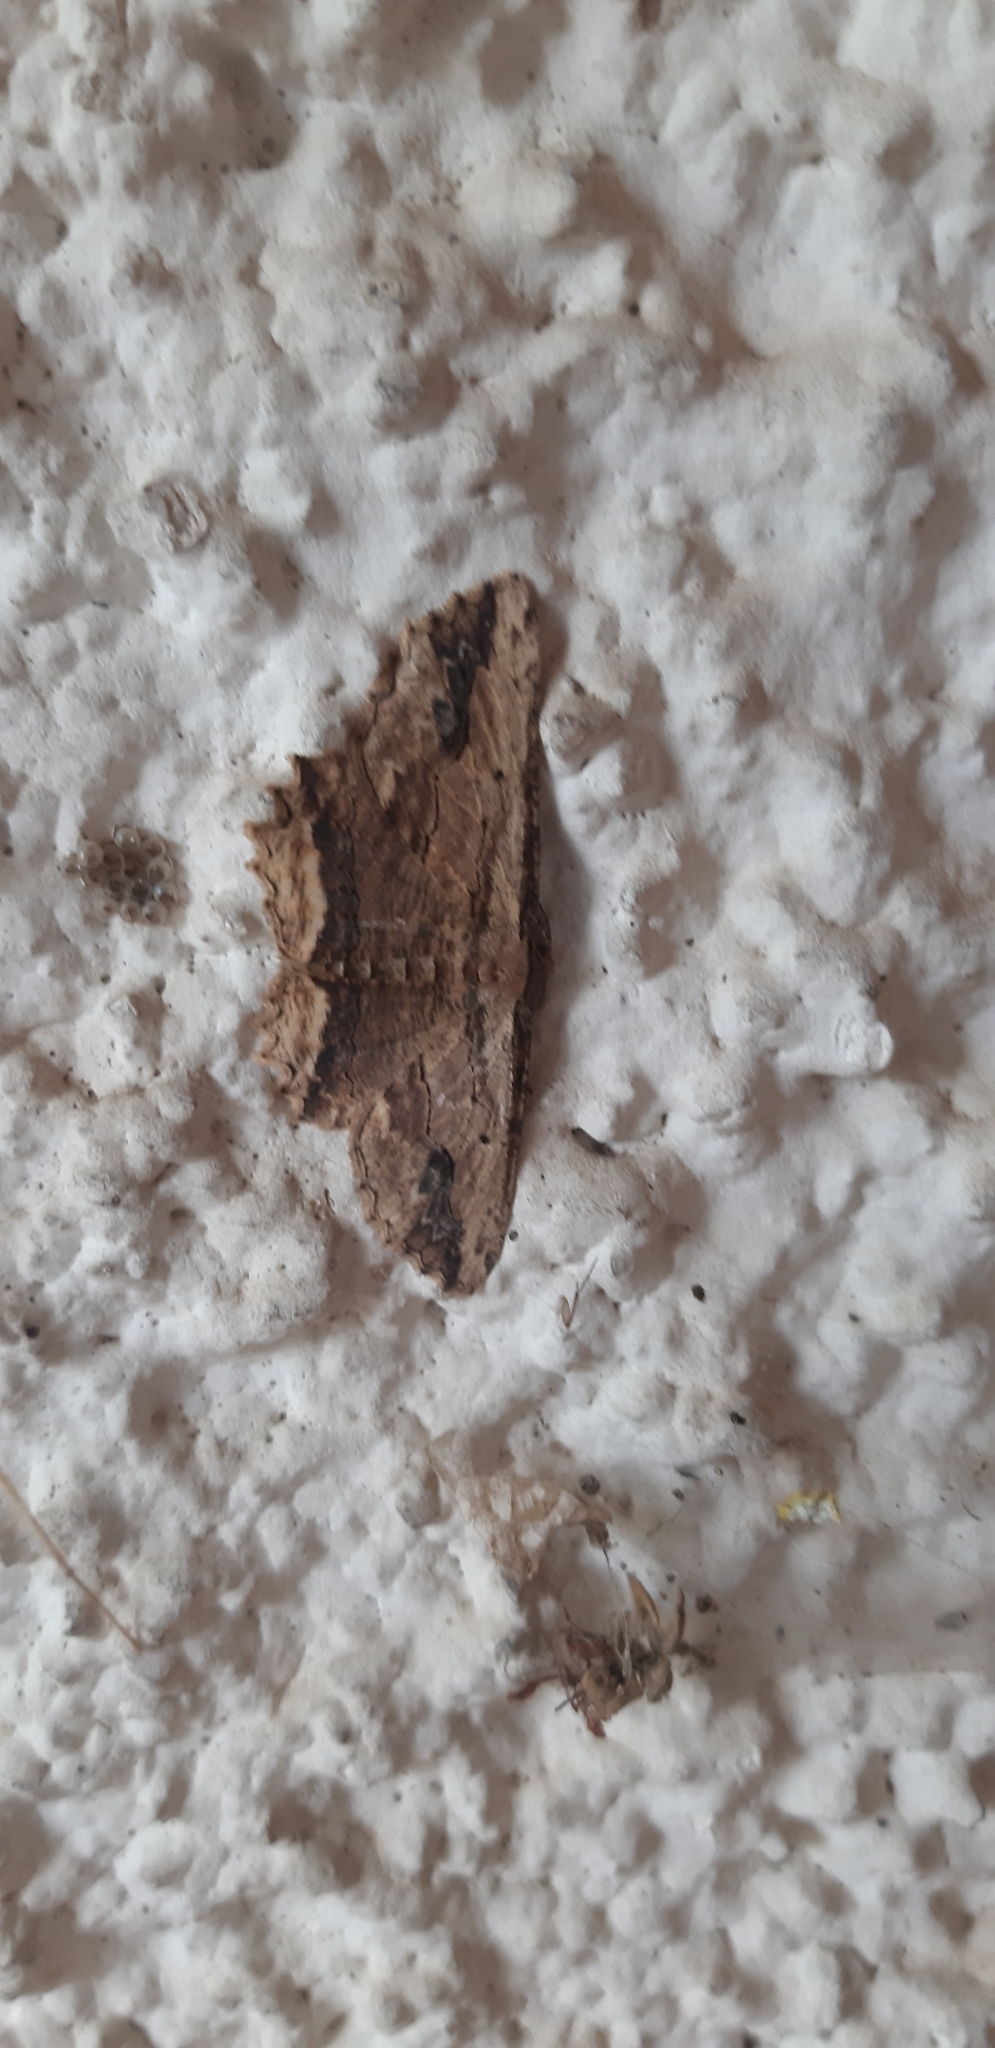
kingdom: Animalia
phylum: Arthropoda
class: Insecta
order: Lepidoptera
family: Geometridae
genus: Menophra
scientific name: Menophra abruptaria
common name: Waved umber
